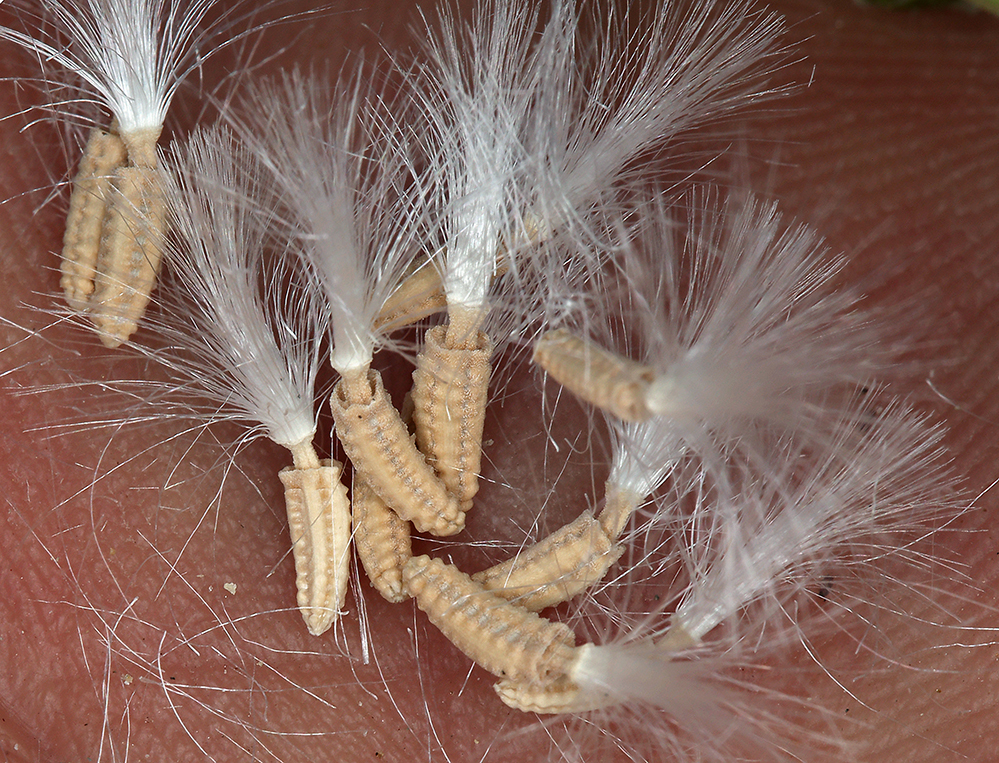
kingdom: Plantae
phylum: Tracheophyta
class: Magnoliopsida
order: Asterales
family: Asteraceae
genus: Glyptopleura
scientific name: Glyptopleura marginata
